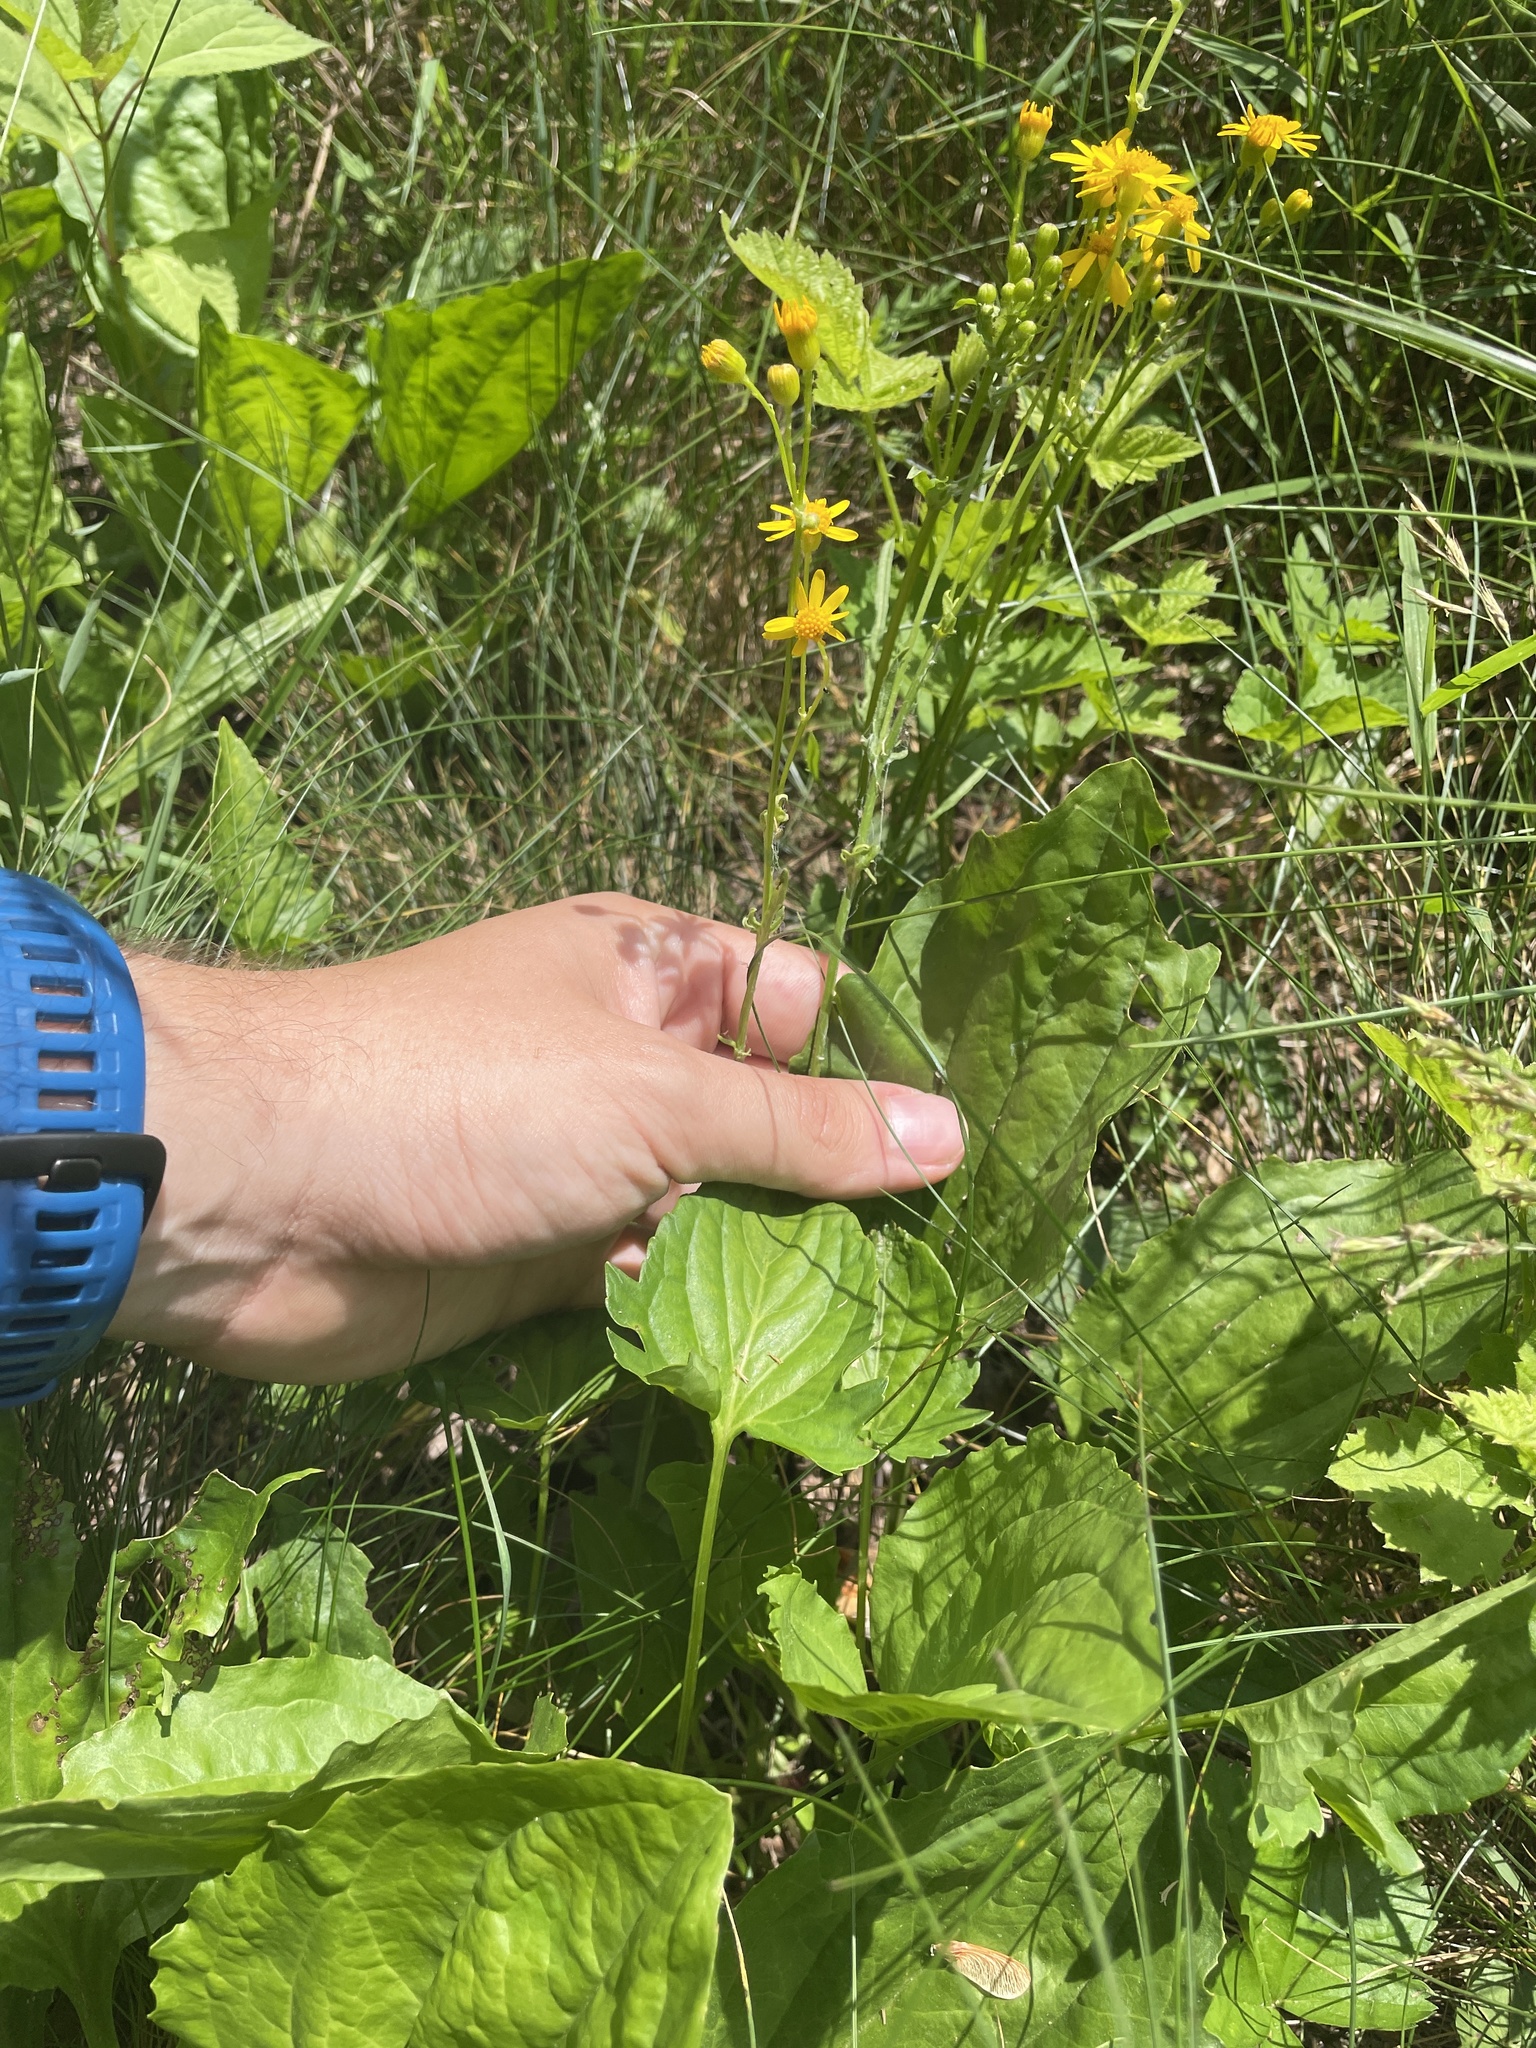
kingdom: Plantae
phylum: Tracheophyta
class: Magnoliopsida
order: Asterales
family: Asteraceae
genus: Packera
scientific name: Packera anonyma
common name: Small ragwort
